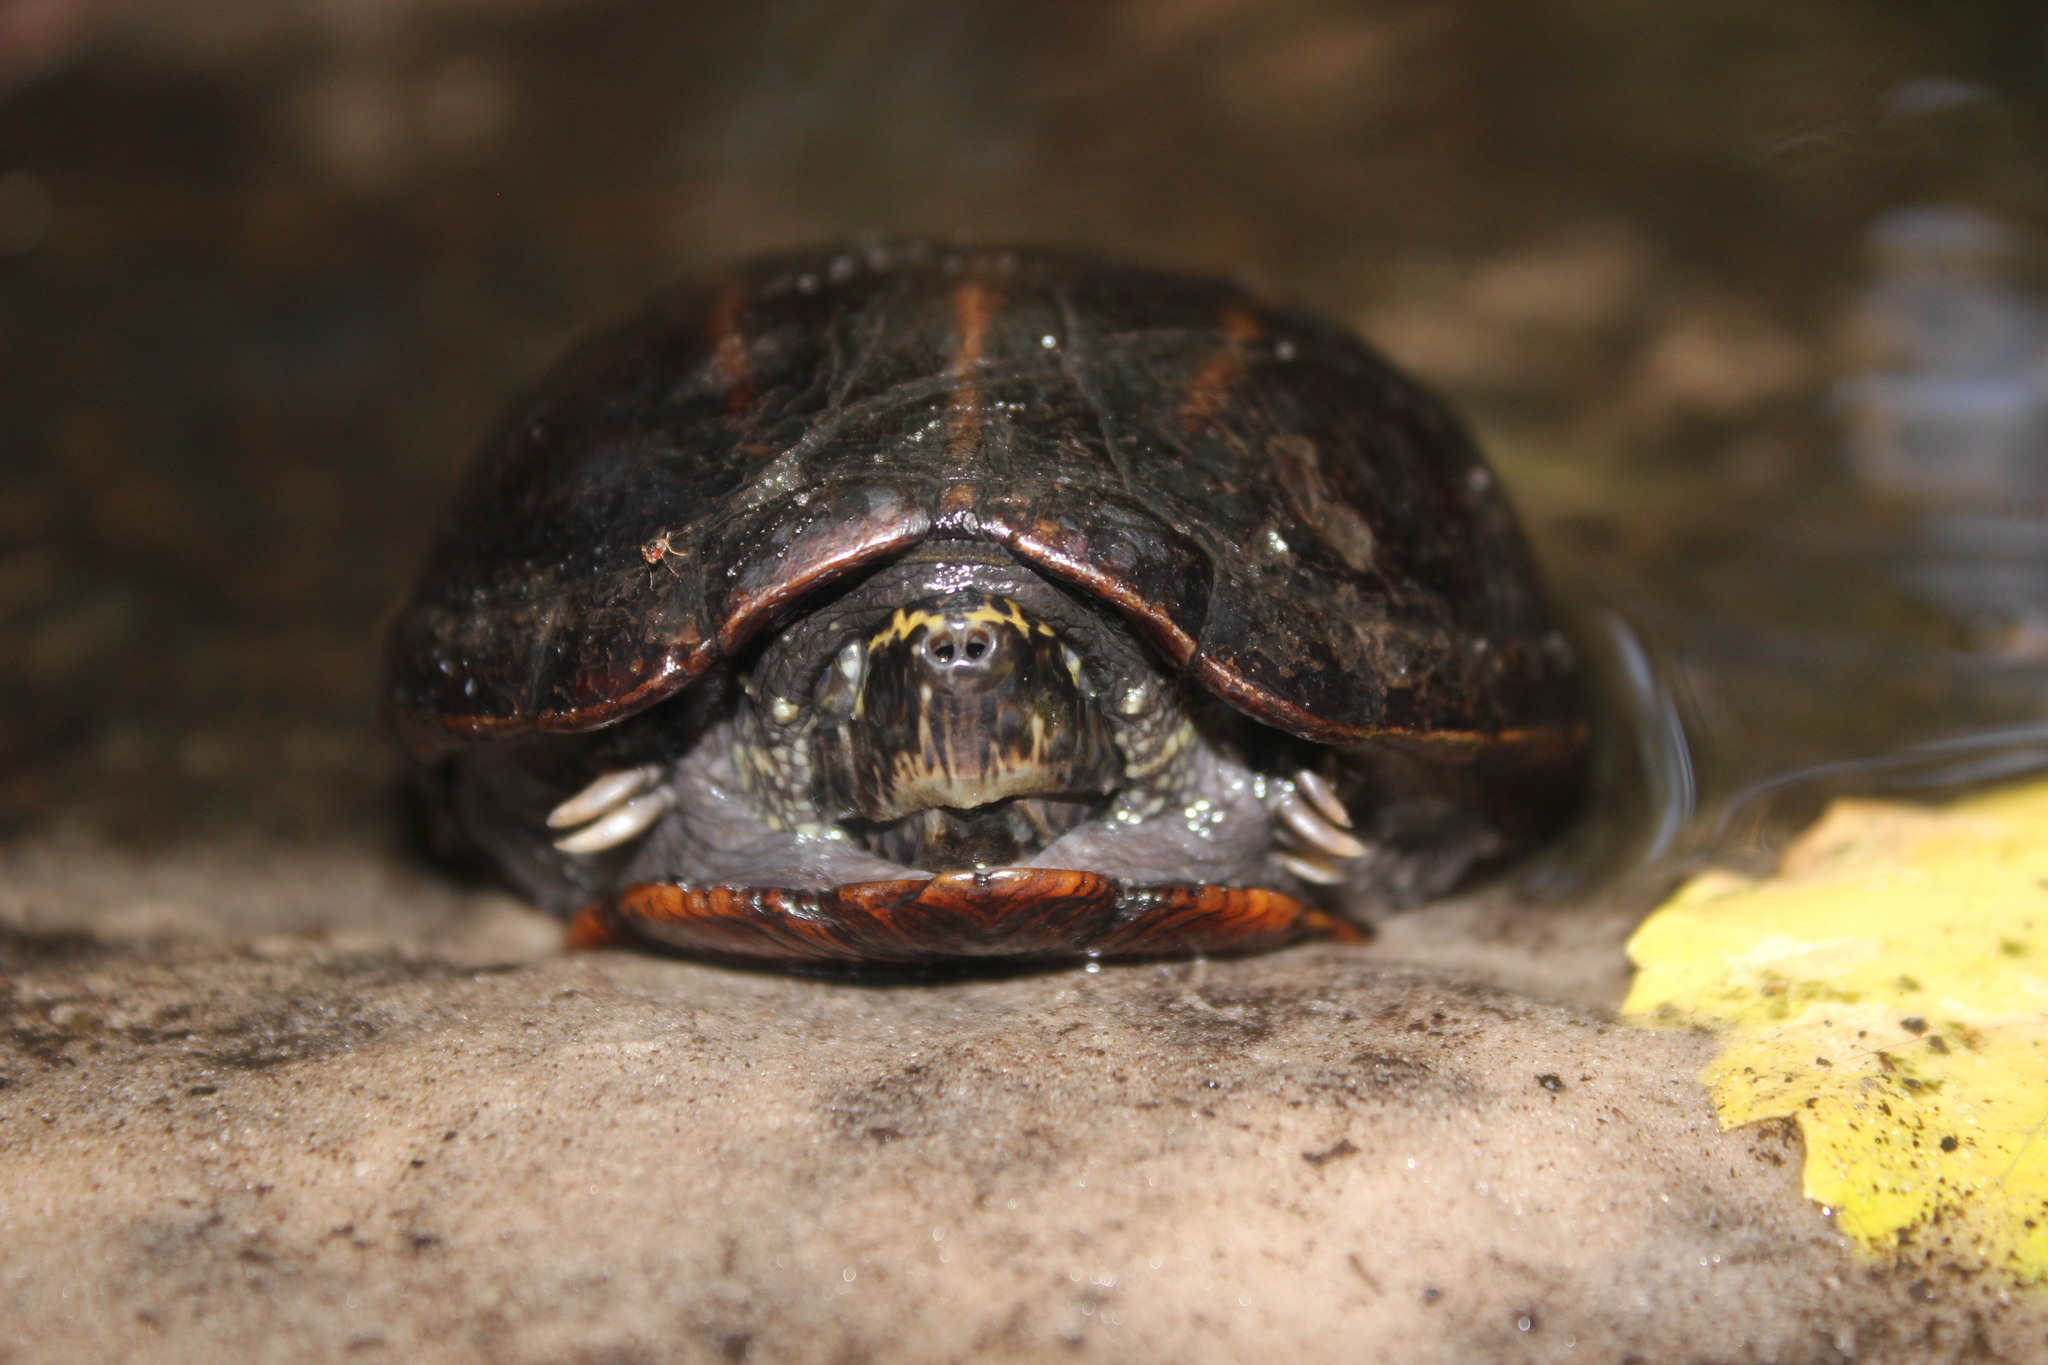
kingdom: Animalia
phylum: Chordata
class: Testudines
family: Kinosternidae
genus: Kinosternon
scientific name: Kinosternon baurii
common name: Striped mud turtle
